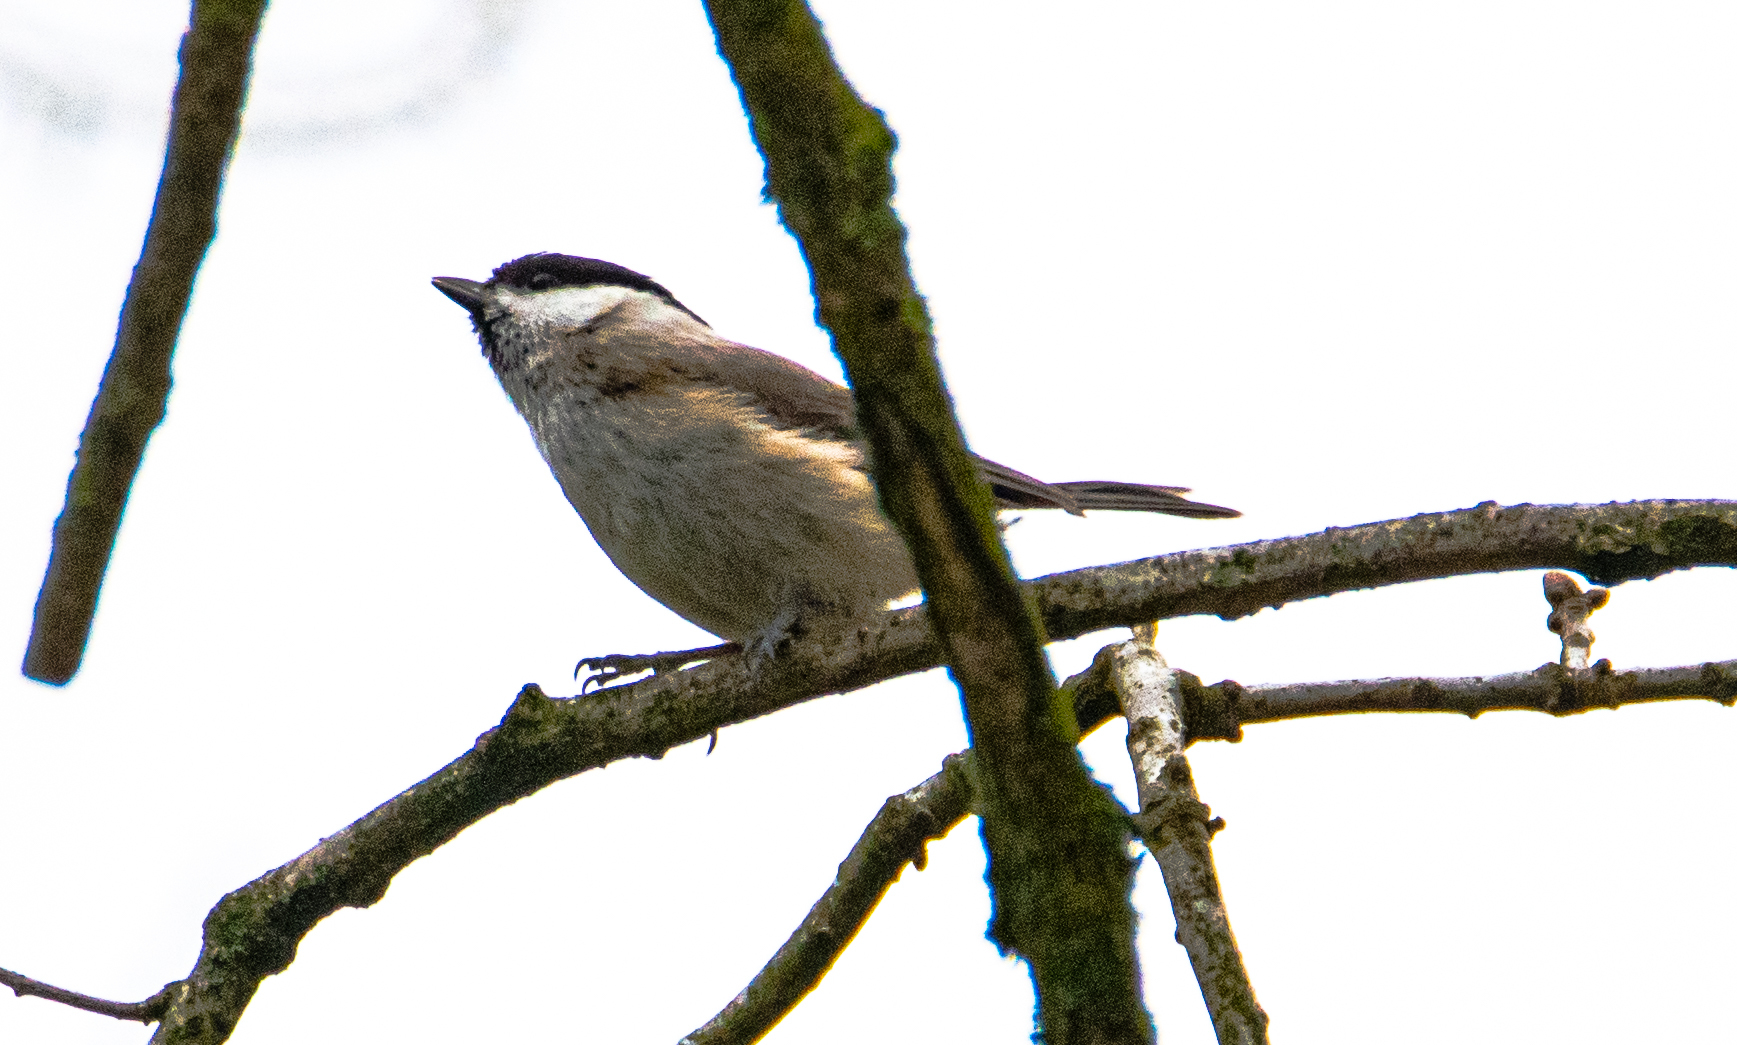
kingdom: Animalia
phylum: Chordata
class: Aves
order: Passeriformes
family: Paridae
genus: Poecile
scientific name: Poecile palustris
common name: Marsh tit
